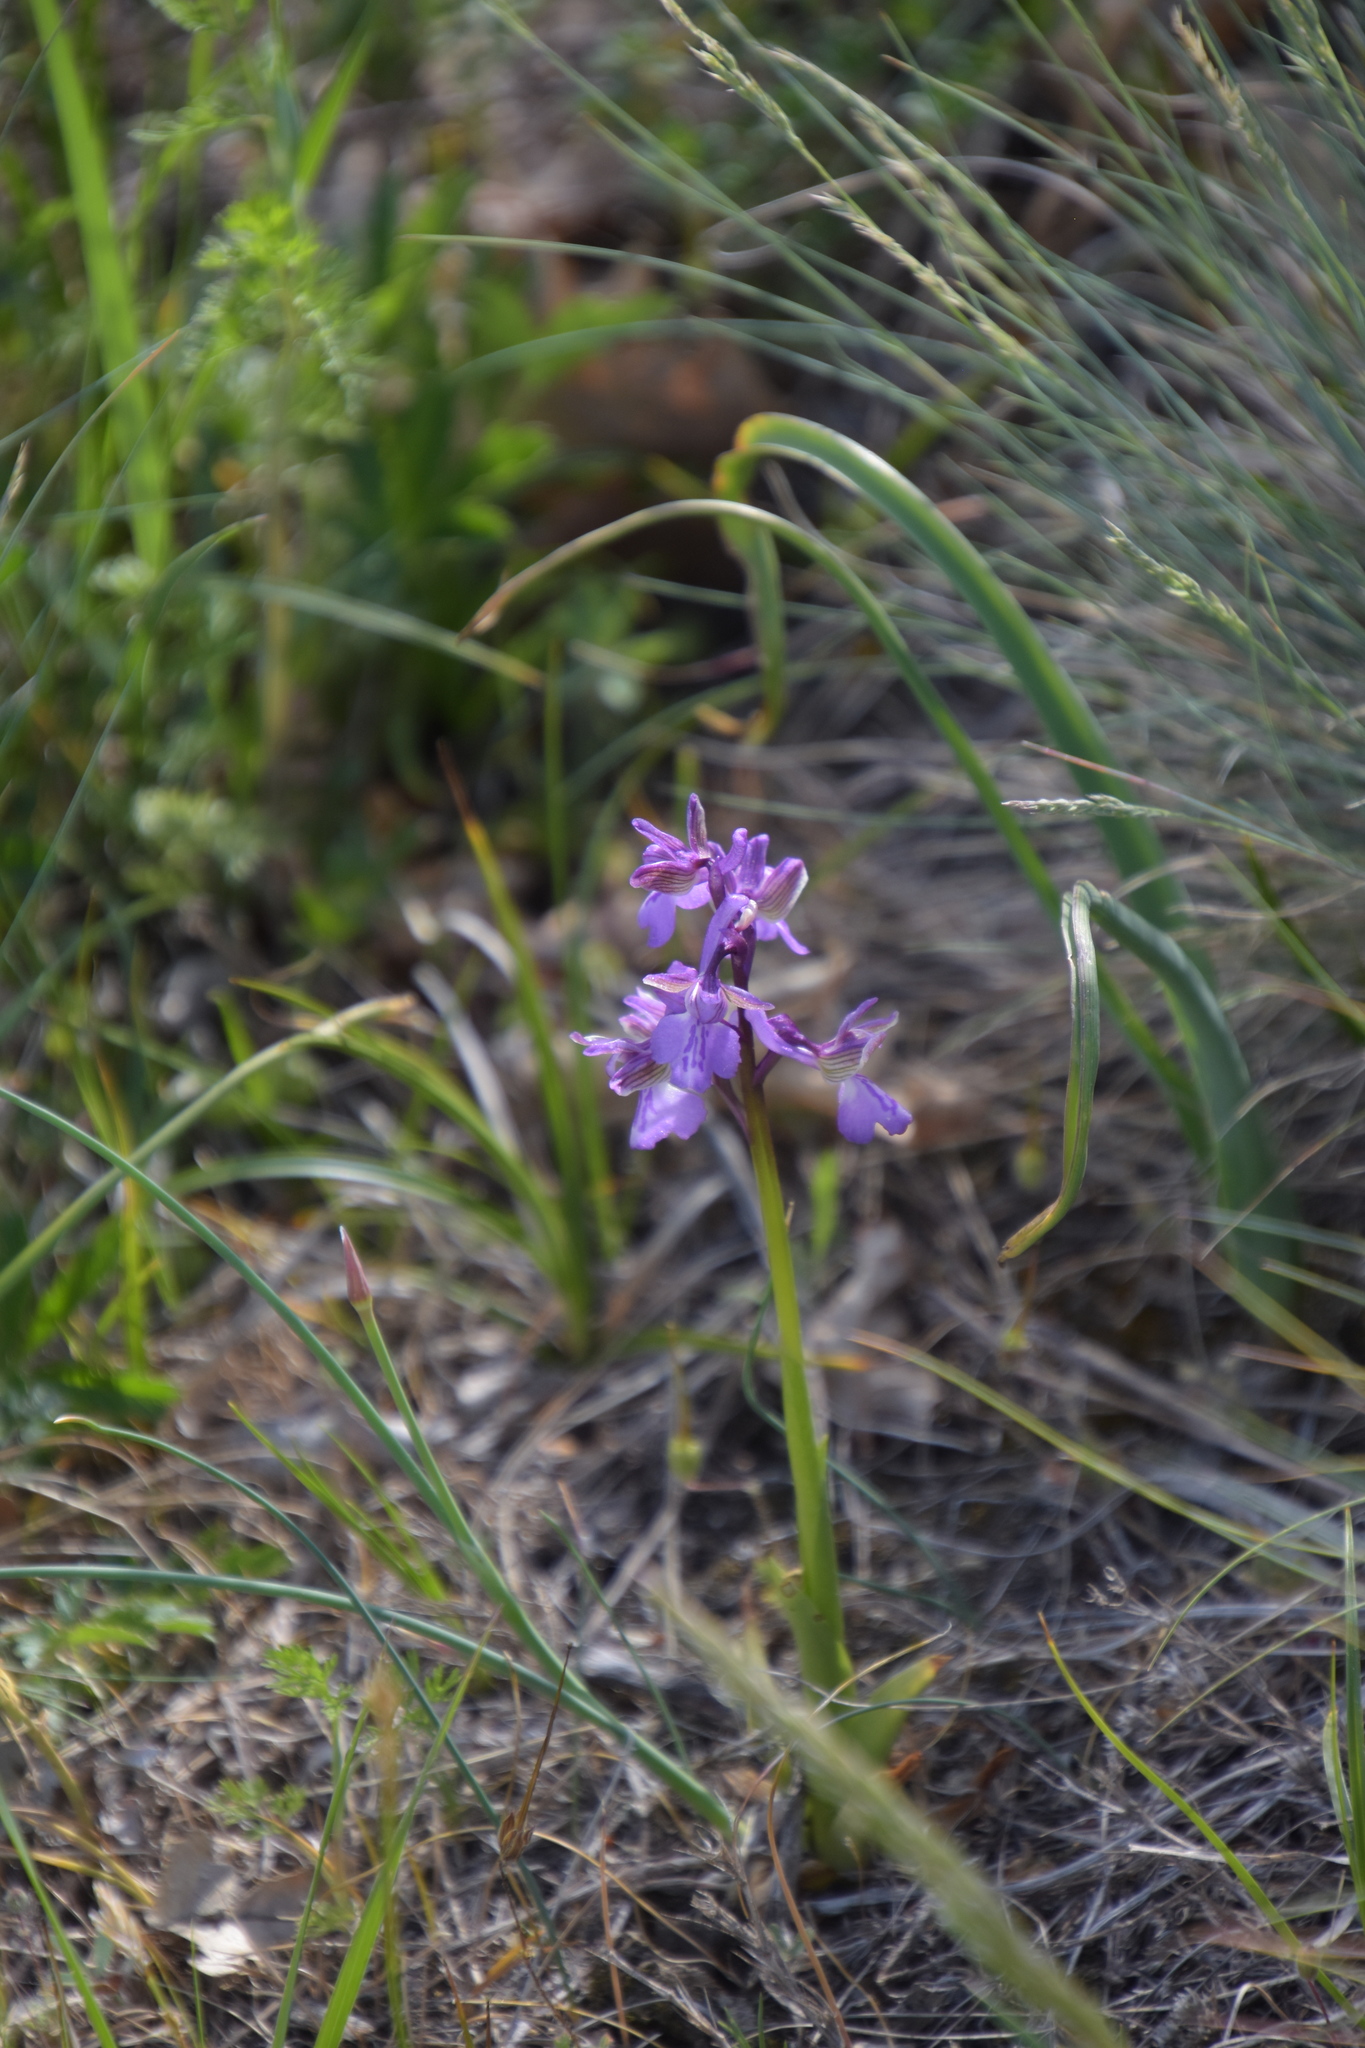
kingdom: Plantae
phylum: Tracheophyta
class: Liliopsida
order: Asparagales
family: Orchidaceae
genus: Anacamptis
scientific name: Anacamptis morio
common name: Green-winged orchid
